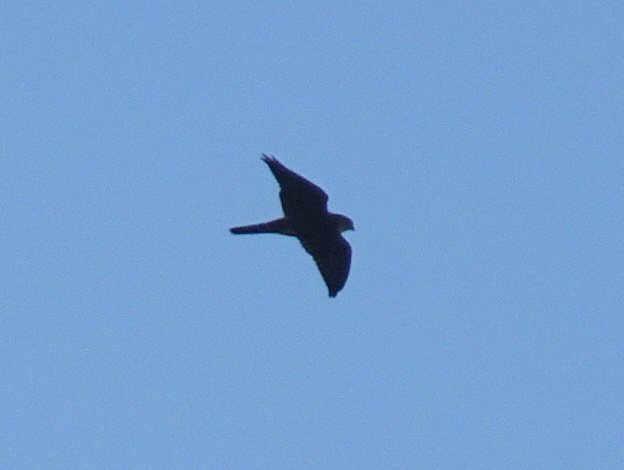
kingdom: Animalia
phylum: Chordata
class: Aves
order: Falconiformes
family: Falconidae
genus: Falco
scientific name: Falco columbarius
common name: Merlin
